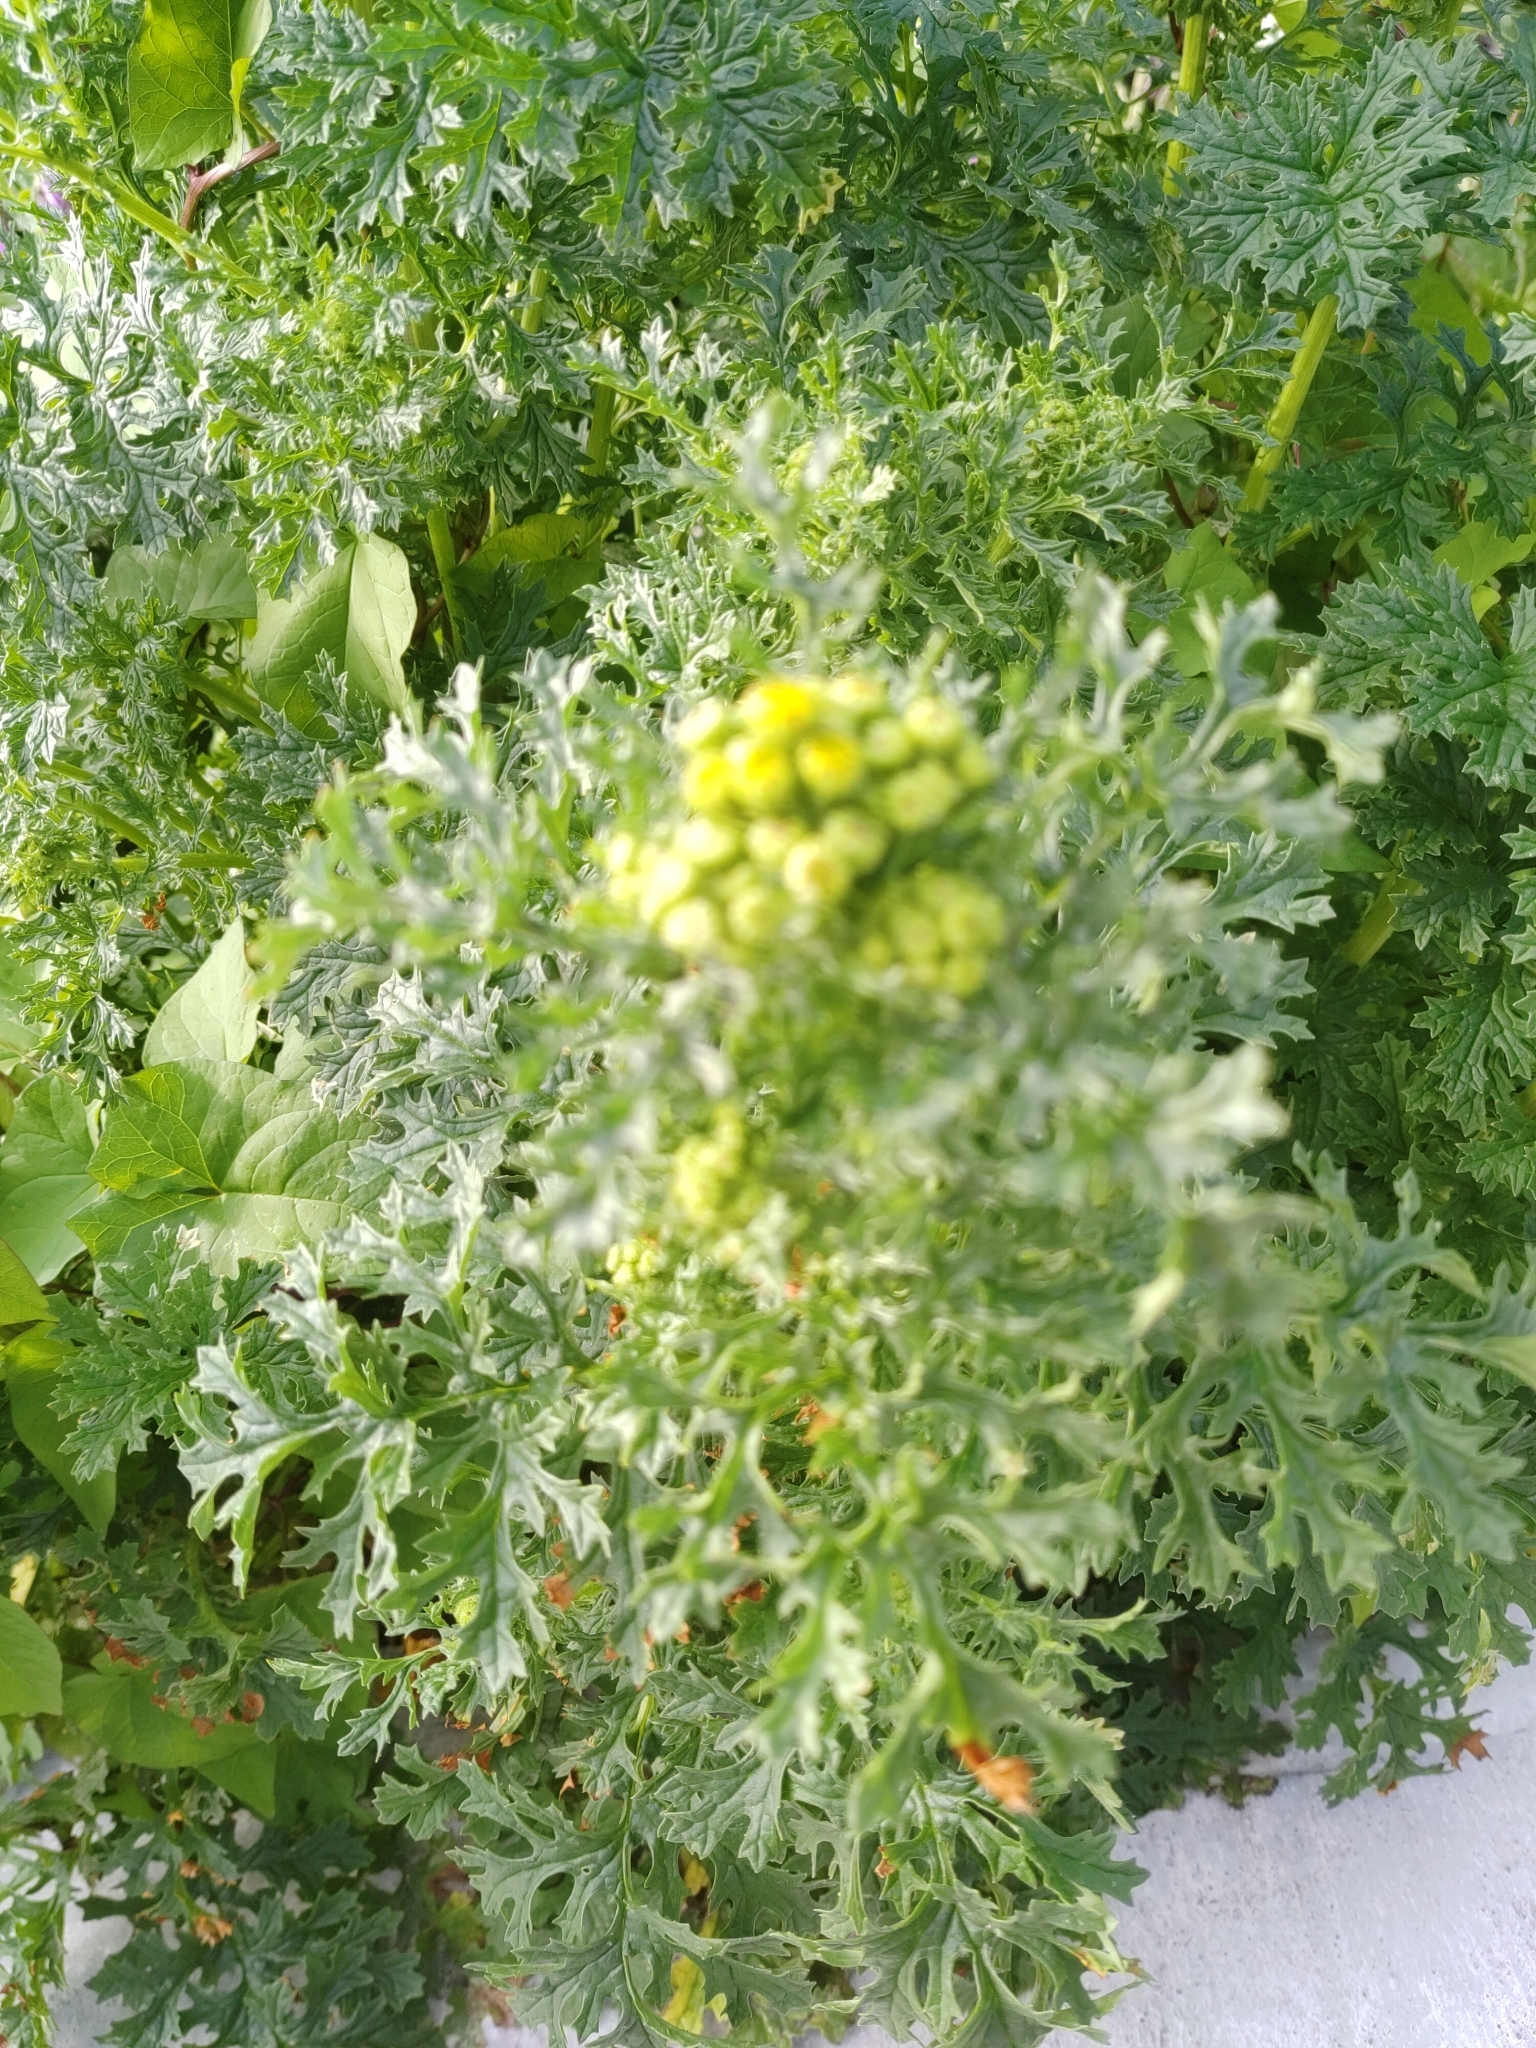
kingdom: Plantae
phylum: Tracheophyta
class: Magnoliopsida
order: Asterales
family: Asteraceae
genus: Jacobaea
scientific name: Jacobaea vulgaris
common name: Stinking willie
